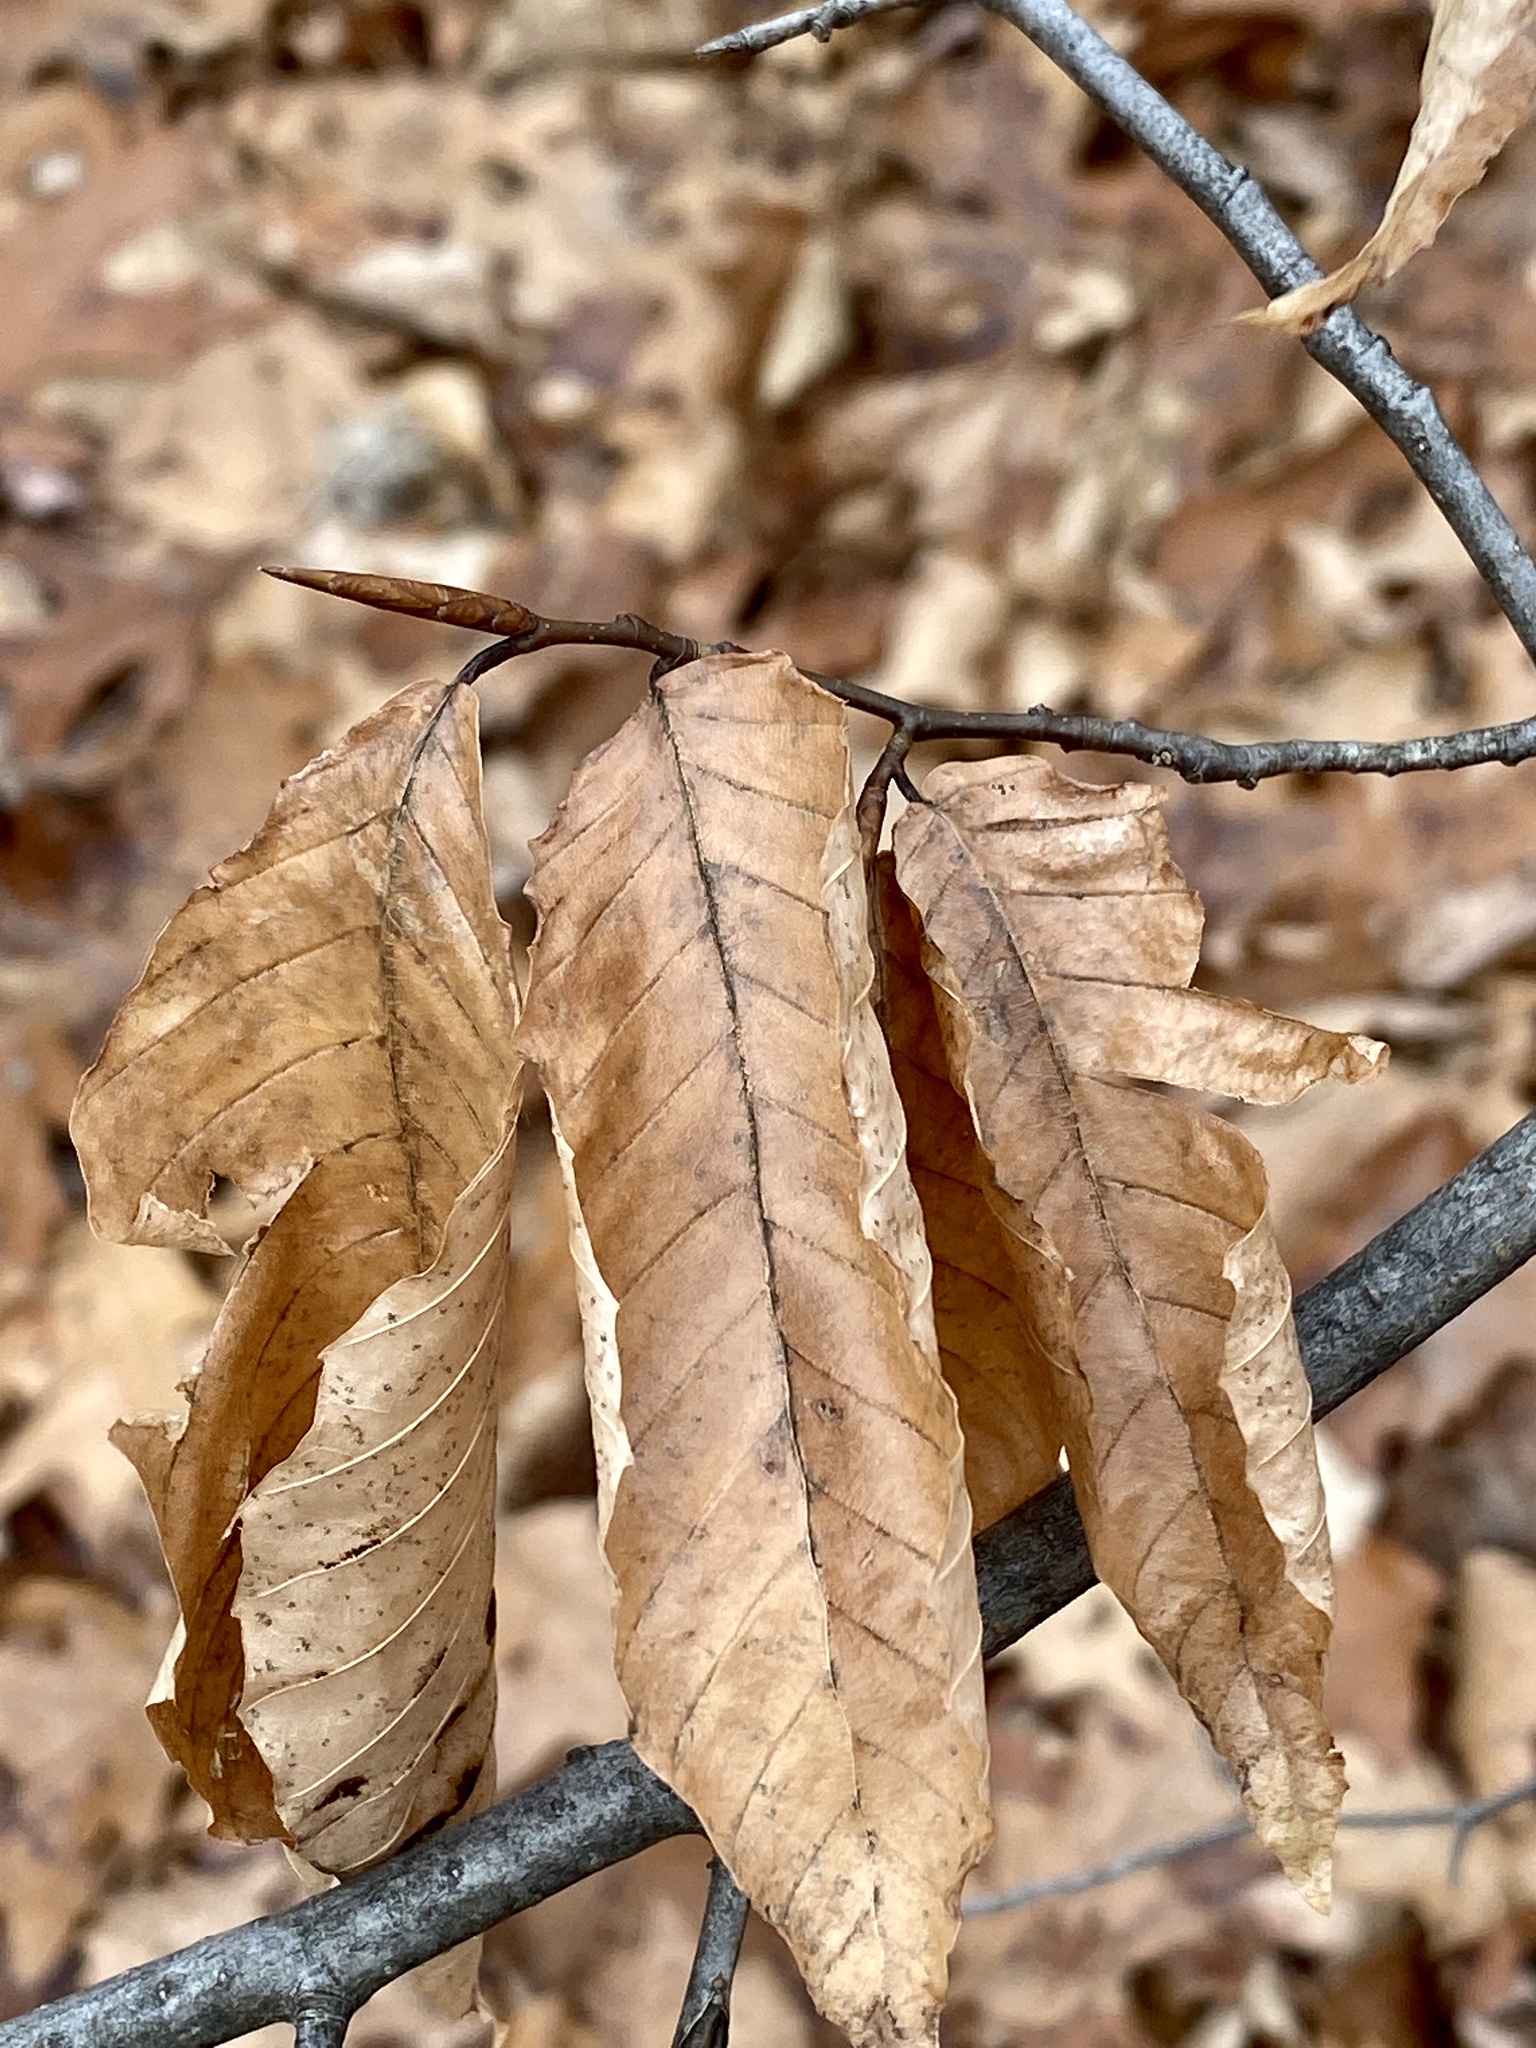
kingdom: Plantae
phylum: Tracheophyta
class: Magnoliopsida
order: Fagales
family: Fagaceae
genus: Fagus
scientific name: Fagus grandifolia
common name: American beech
